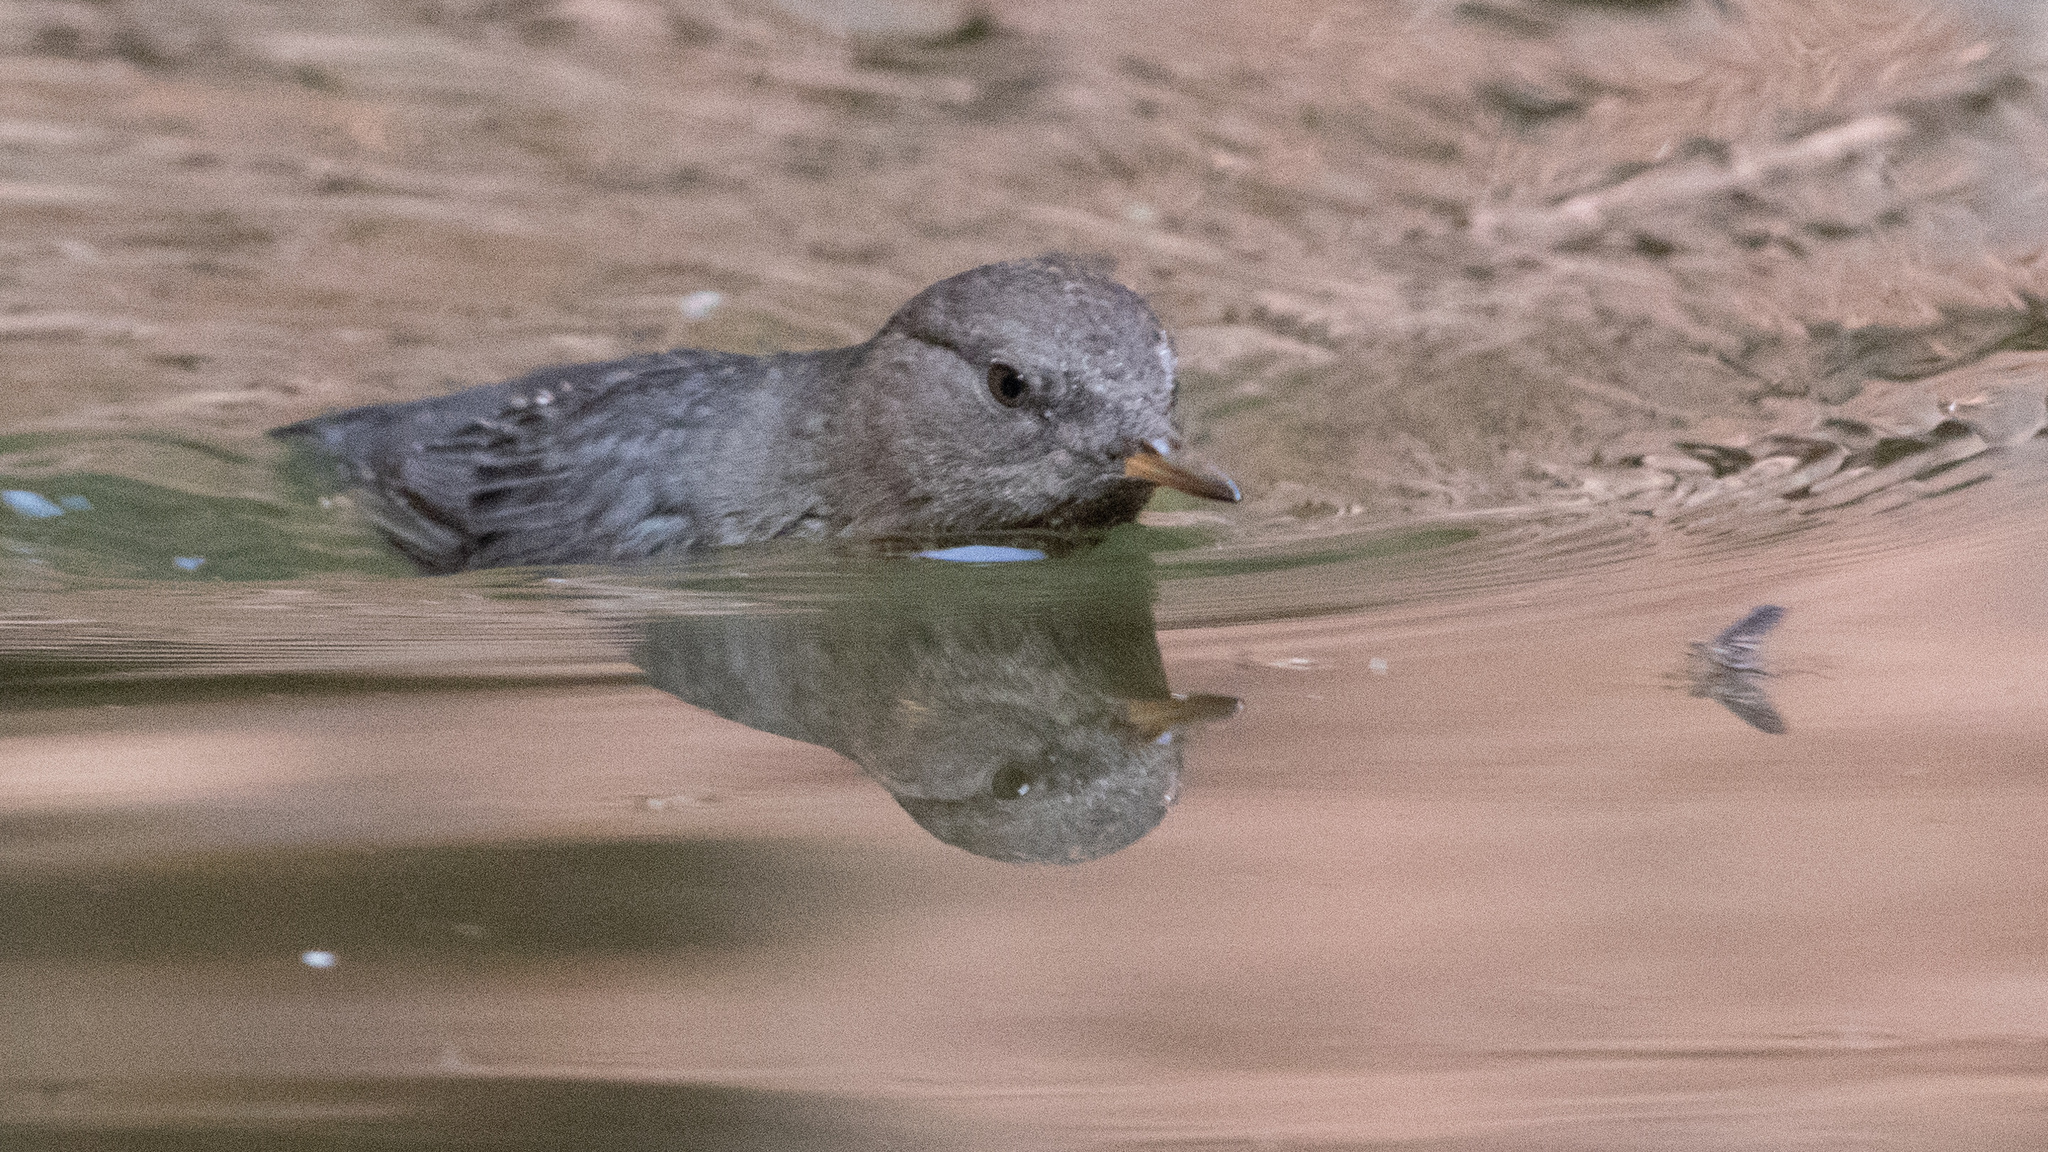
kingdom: Animalia
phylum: Chordata
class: Aves
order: Passeriformes
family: Cinclidae
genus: Cinclus
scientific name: Cinclus mexicanus
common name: American dipper
